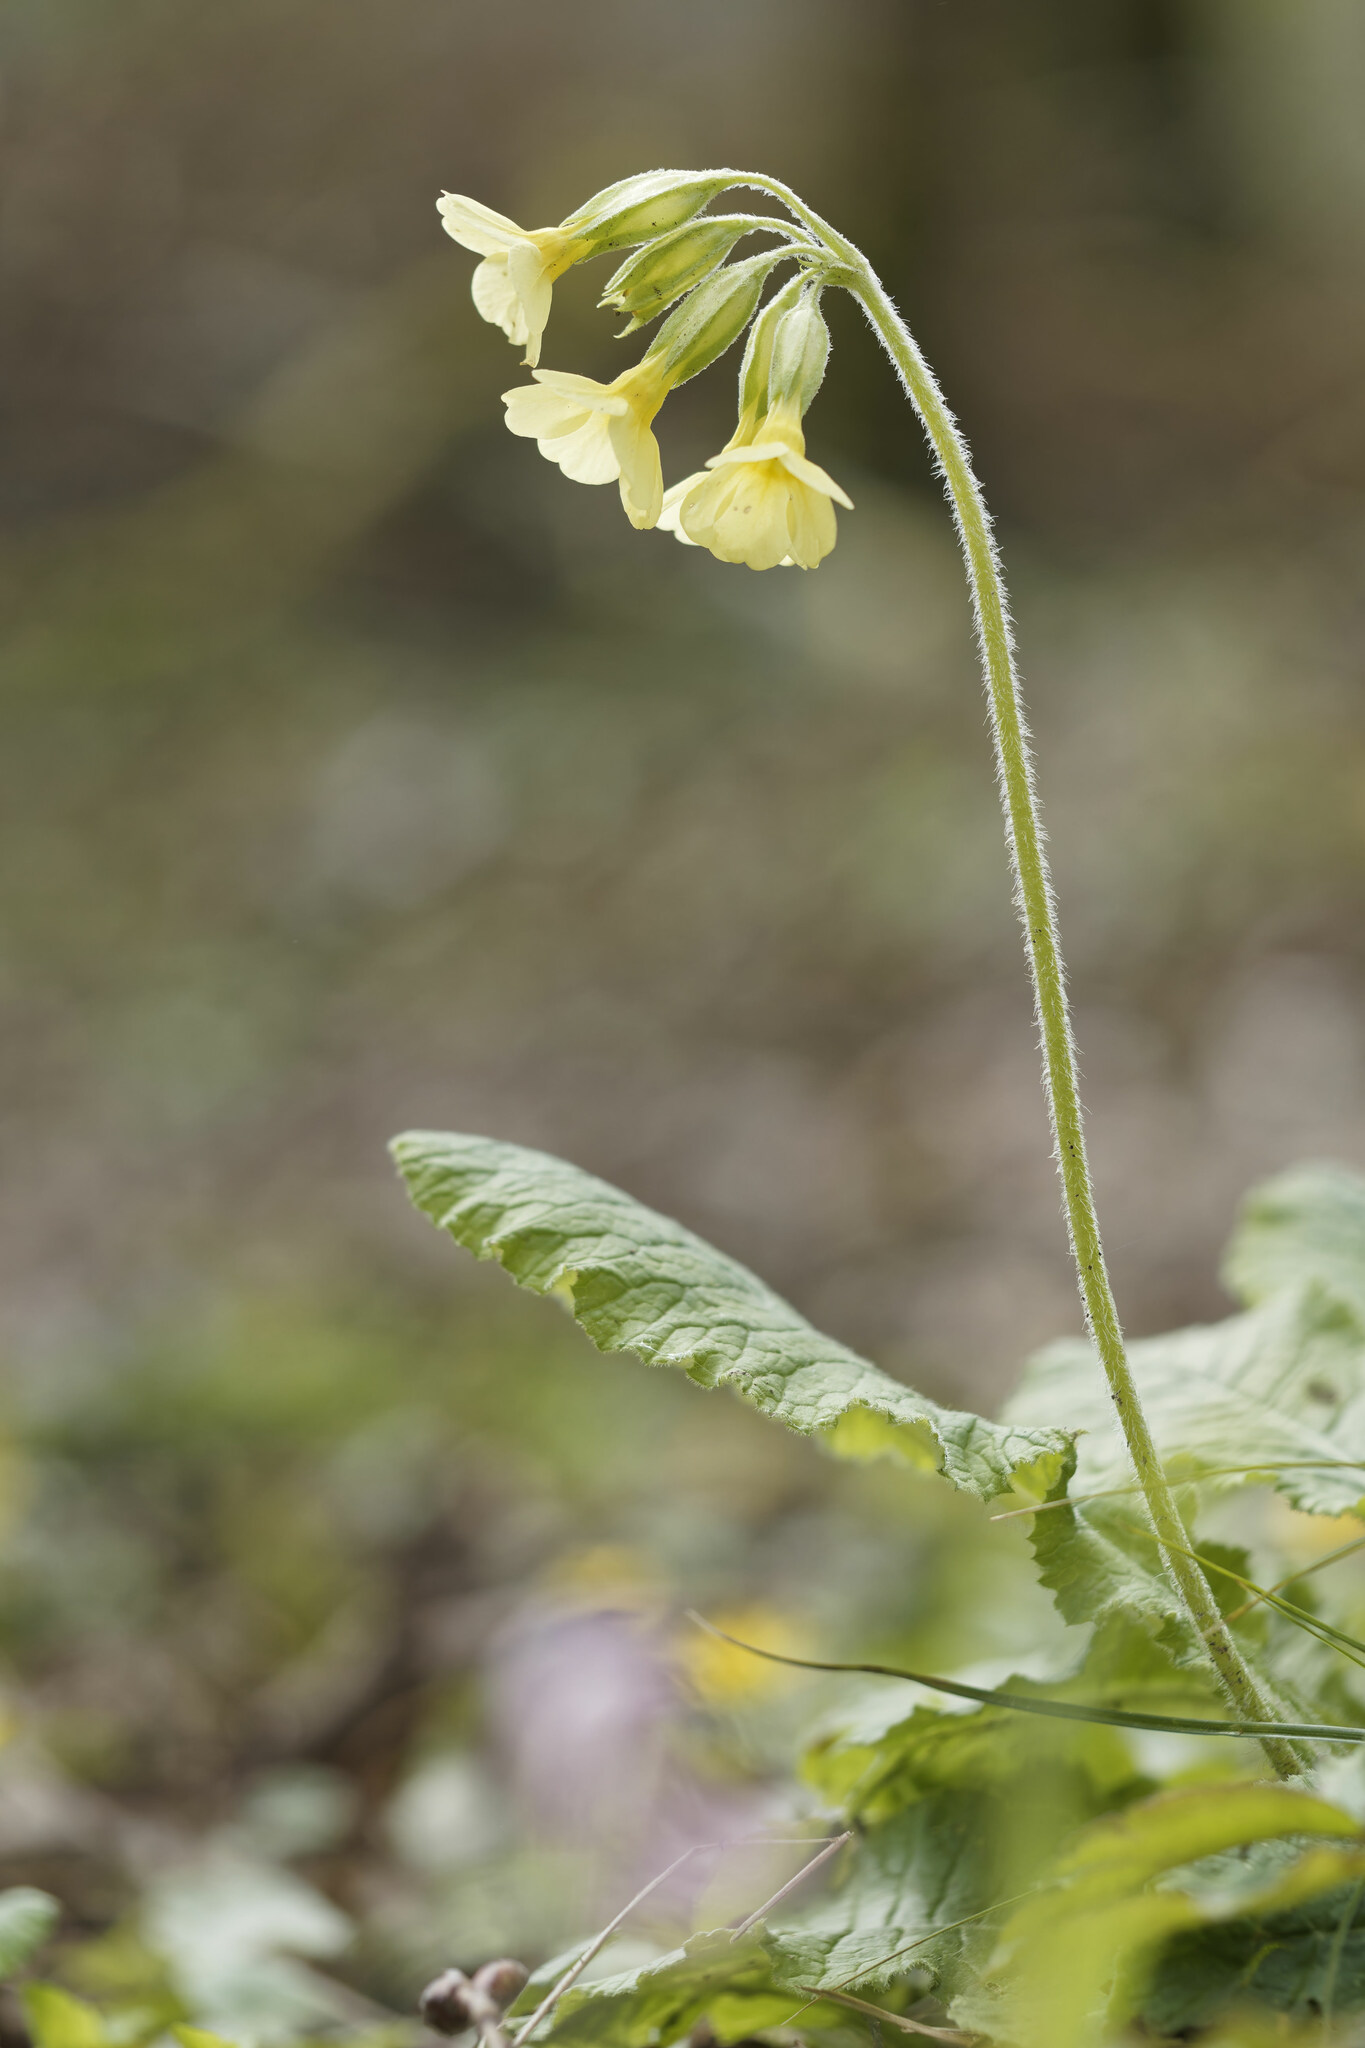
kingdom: Plantae
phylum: Tracheophyta
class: Magnoliopsida
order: Ericales
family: Primulaceae
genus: Primula
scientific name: Primula elatior
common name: Oxlip
